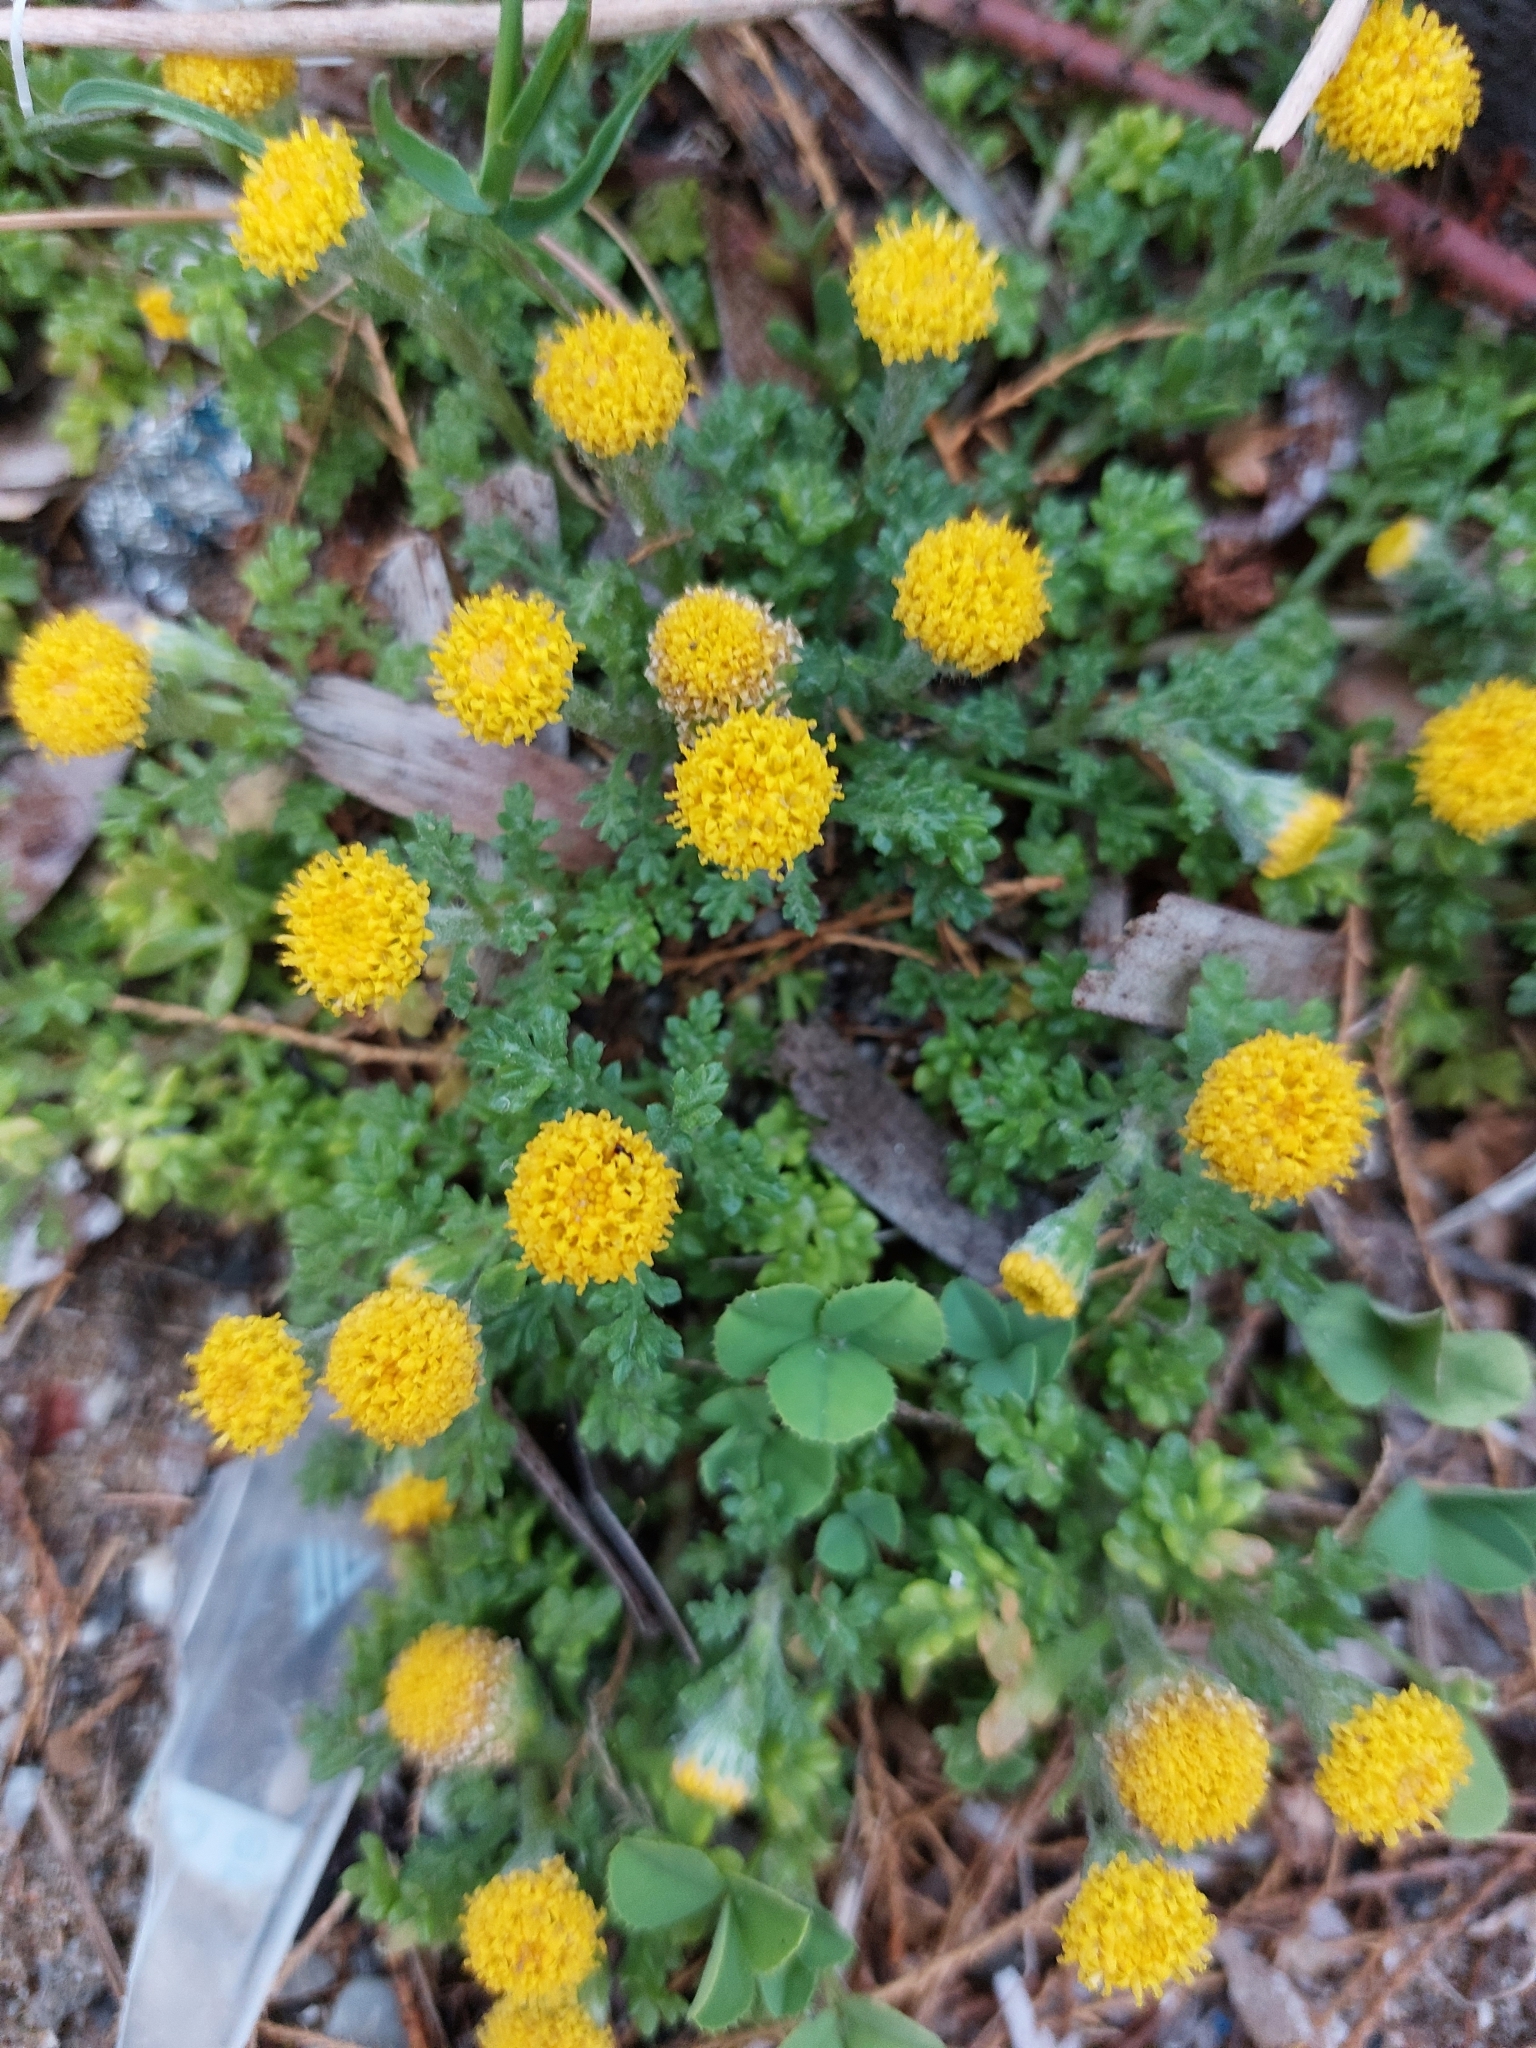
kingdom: Plantae
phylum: Tracheophyta
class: Magnoliopsida
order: Asterales
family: Asteraceae
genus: Anthemis
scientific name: Anthemis rigida
